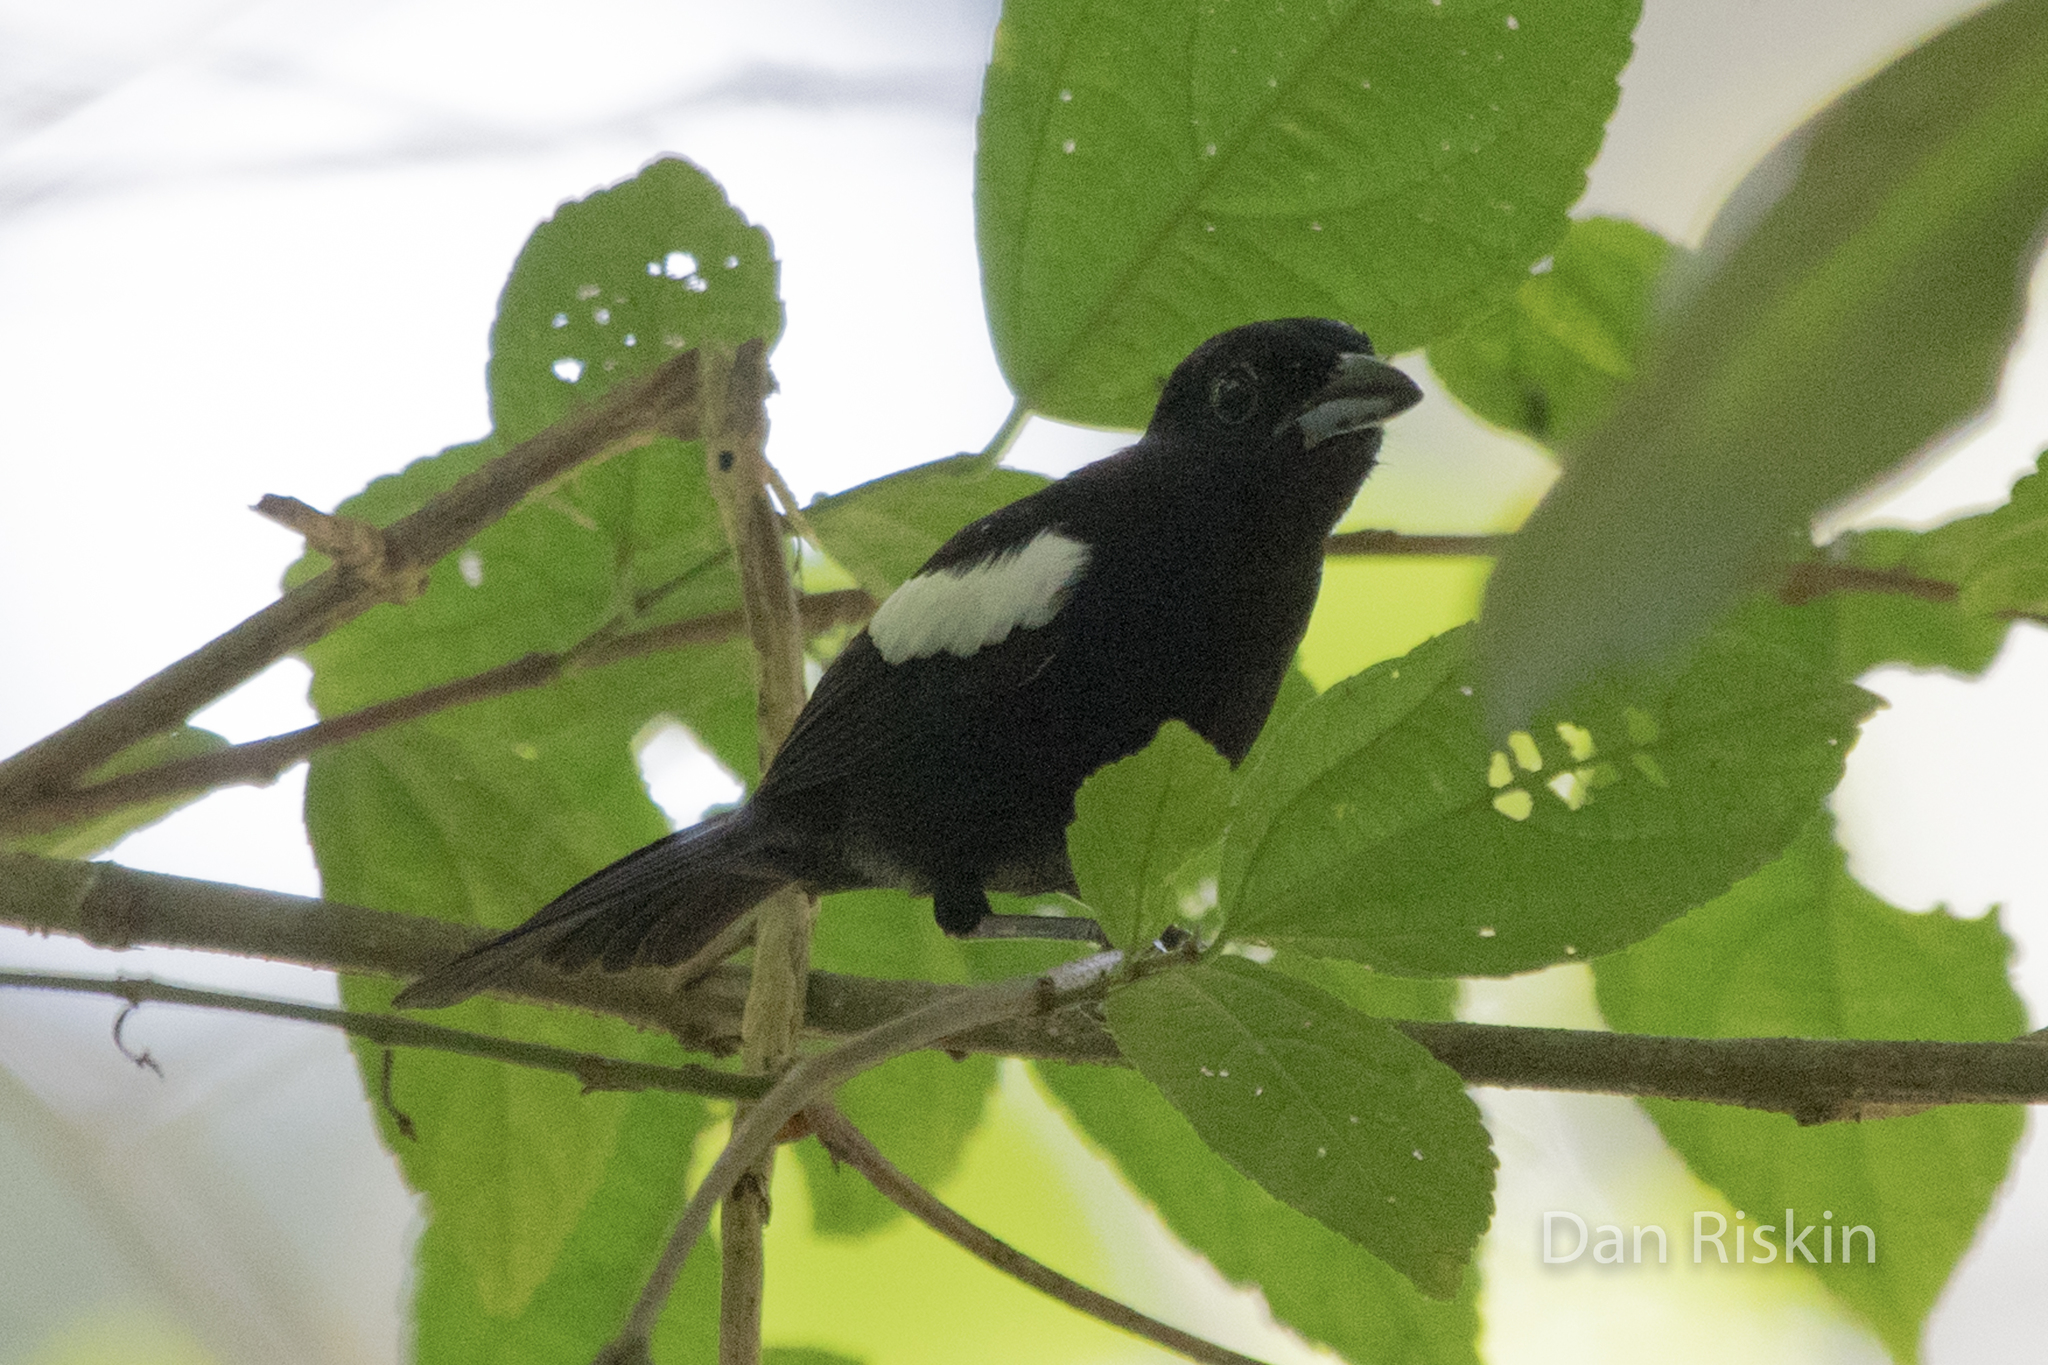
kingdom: Animalia
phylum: Chordata
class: Aves
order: Passeriformes
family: Thraupidae
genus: Loriotus
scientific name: Loriotus luctuosus
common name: White-shouldered tanager
